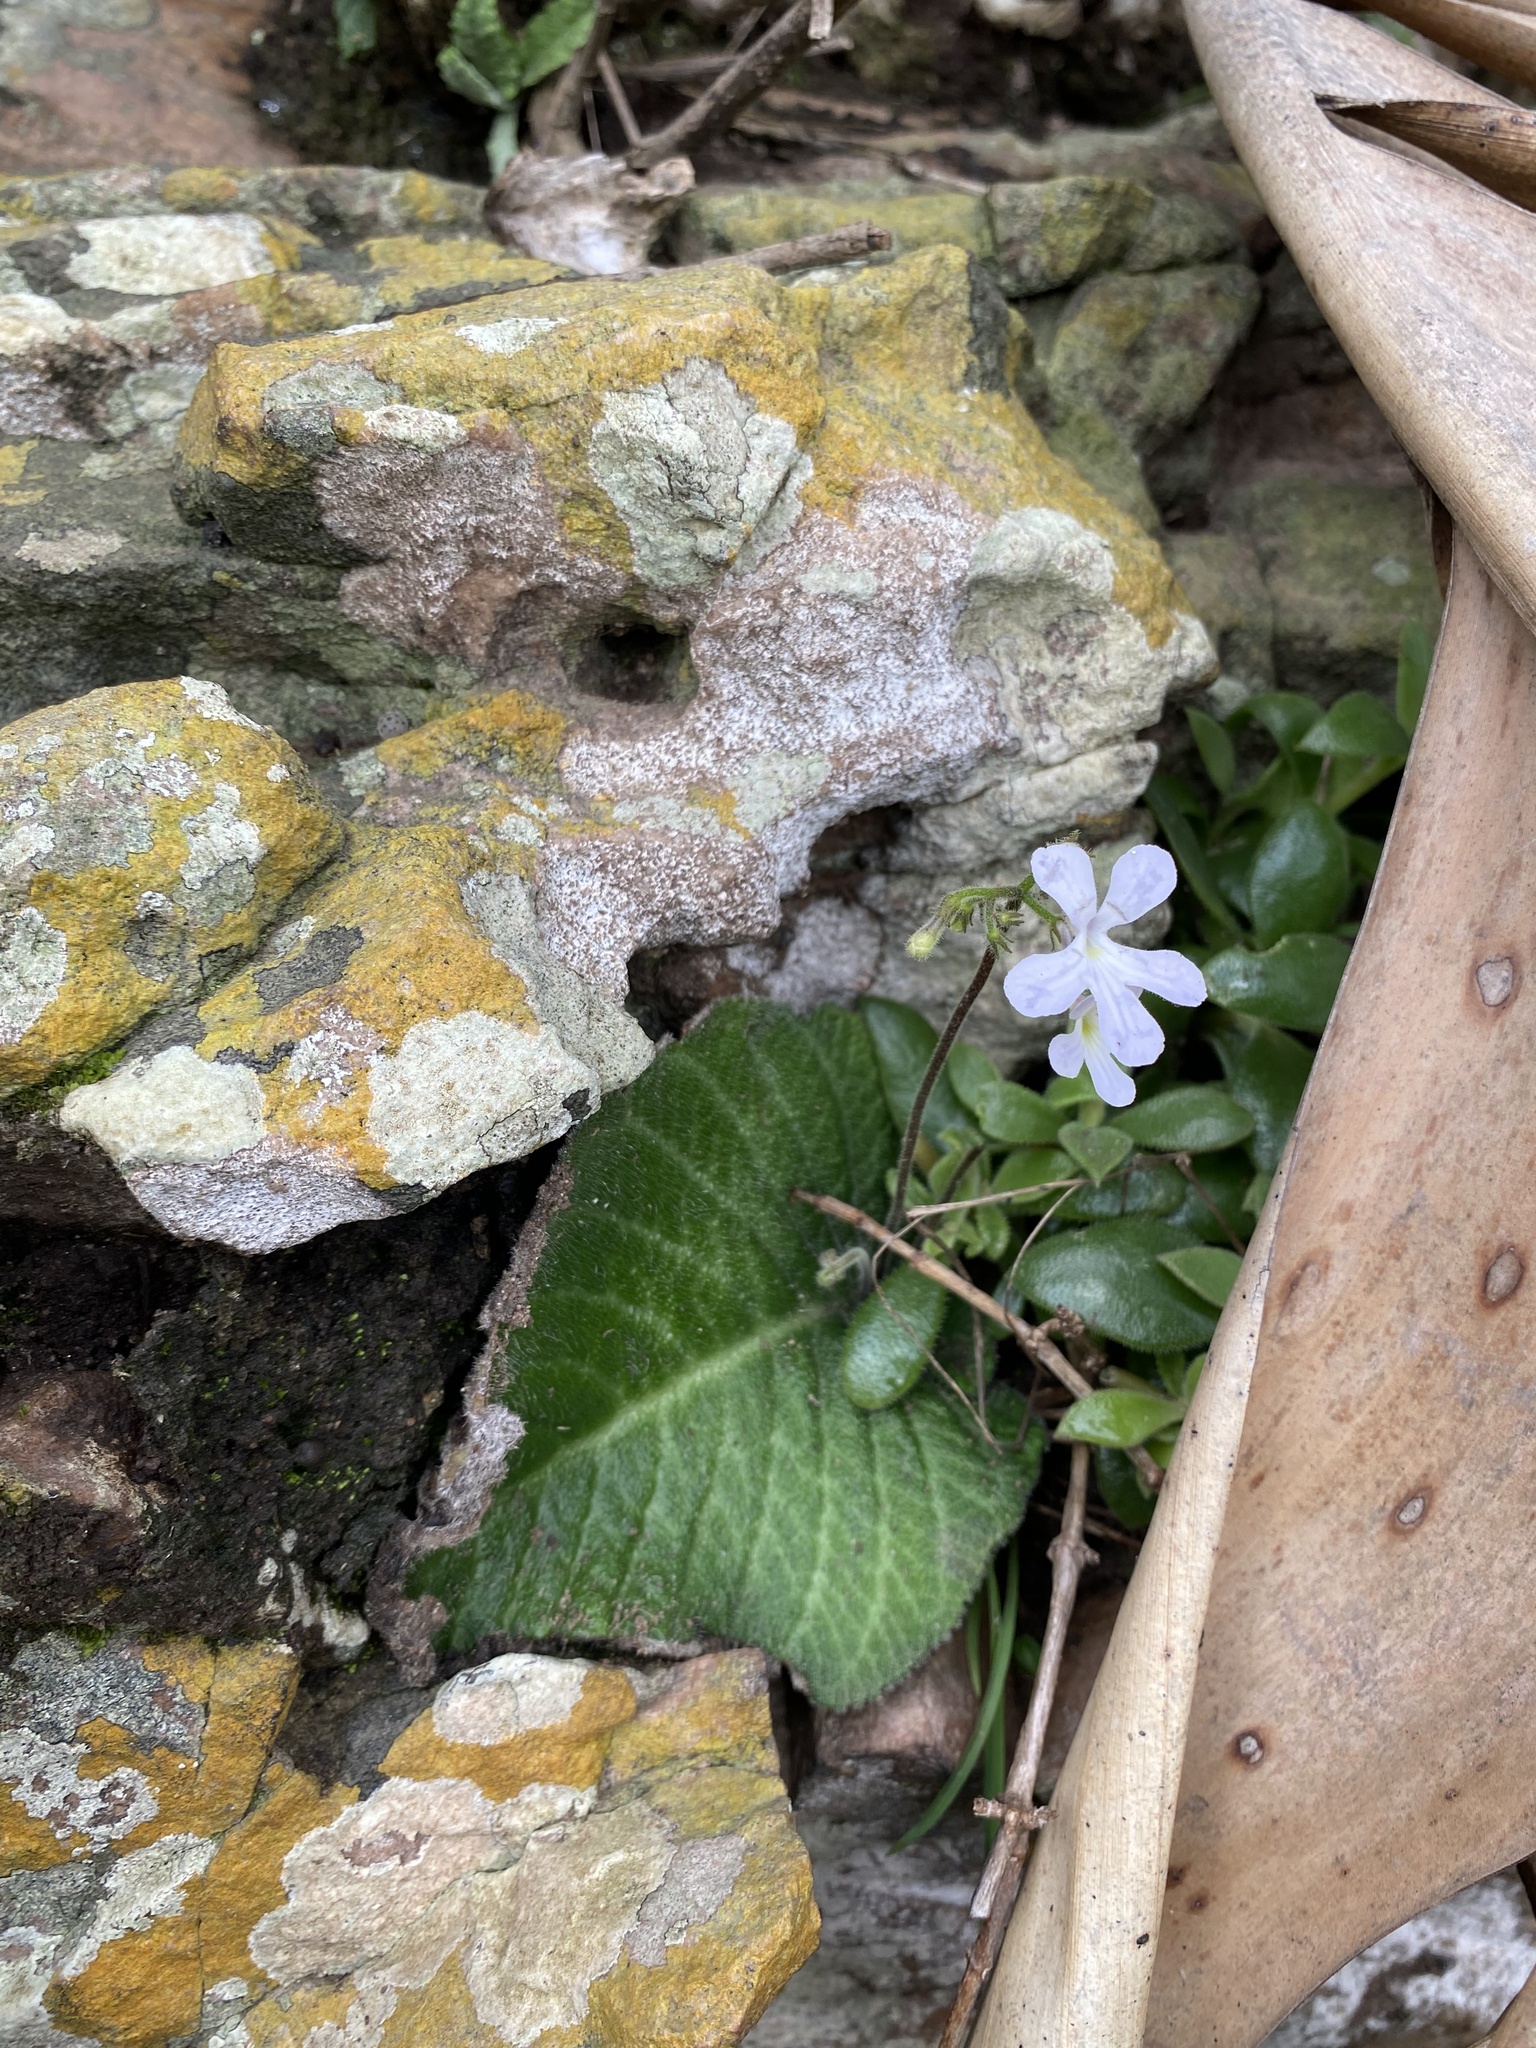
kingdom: Plantae
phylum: Tracheophyta
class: Magnoliopsida
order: Lamiales
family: Gesneriaceae
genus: Streptocarpus
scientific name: Streptocarpus prolixus
